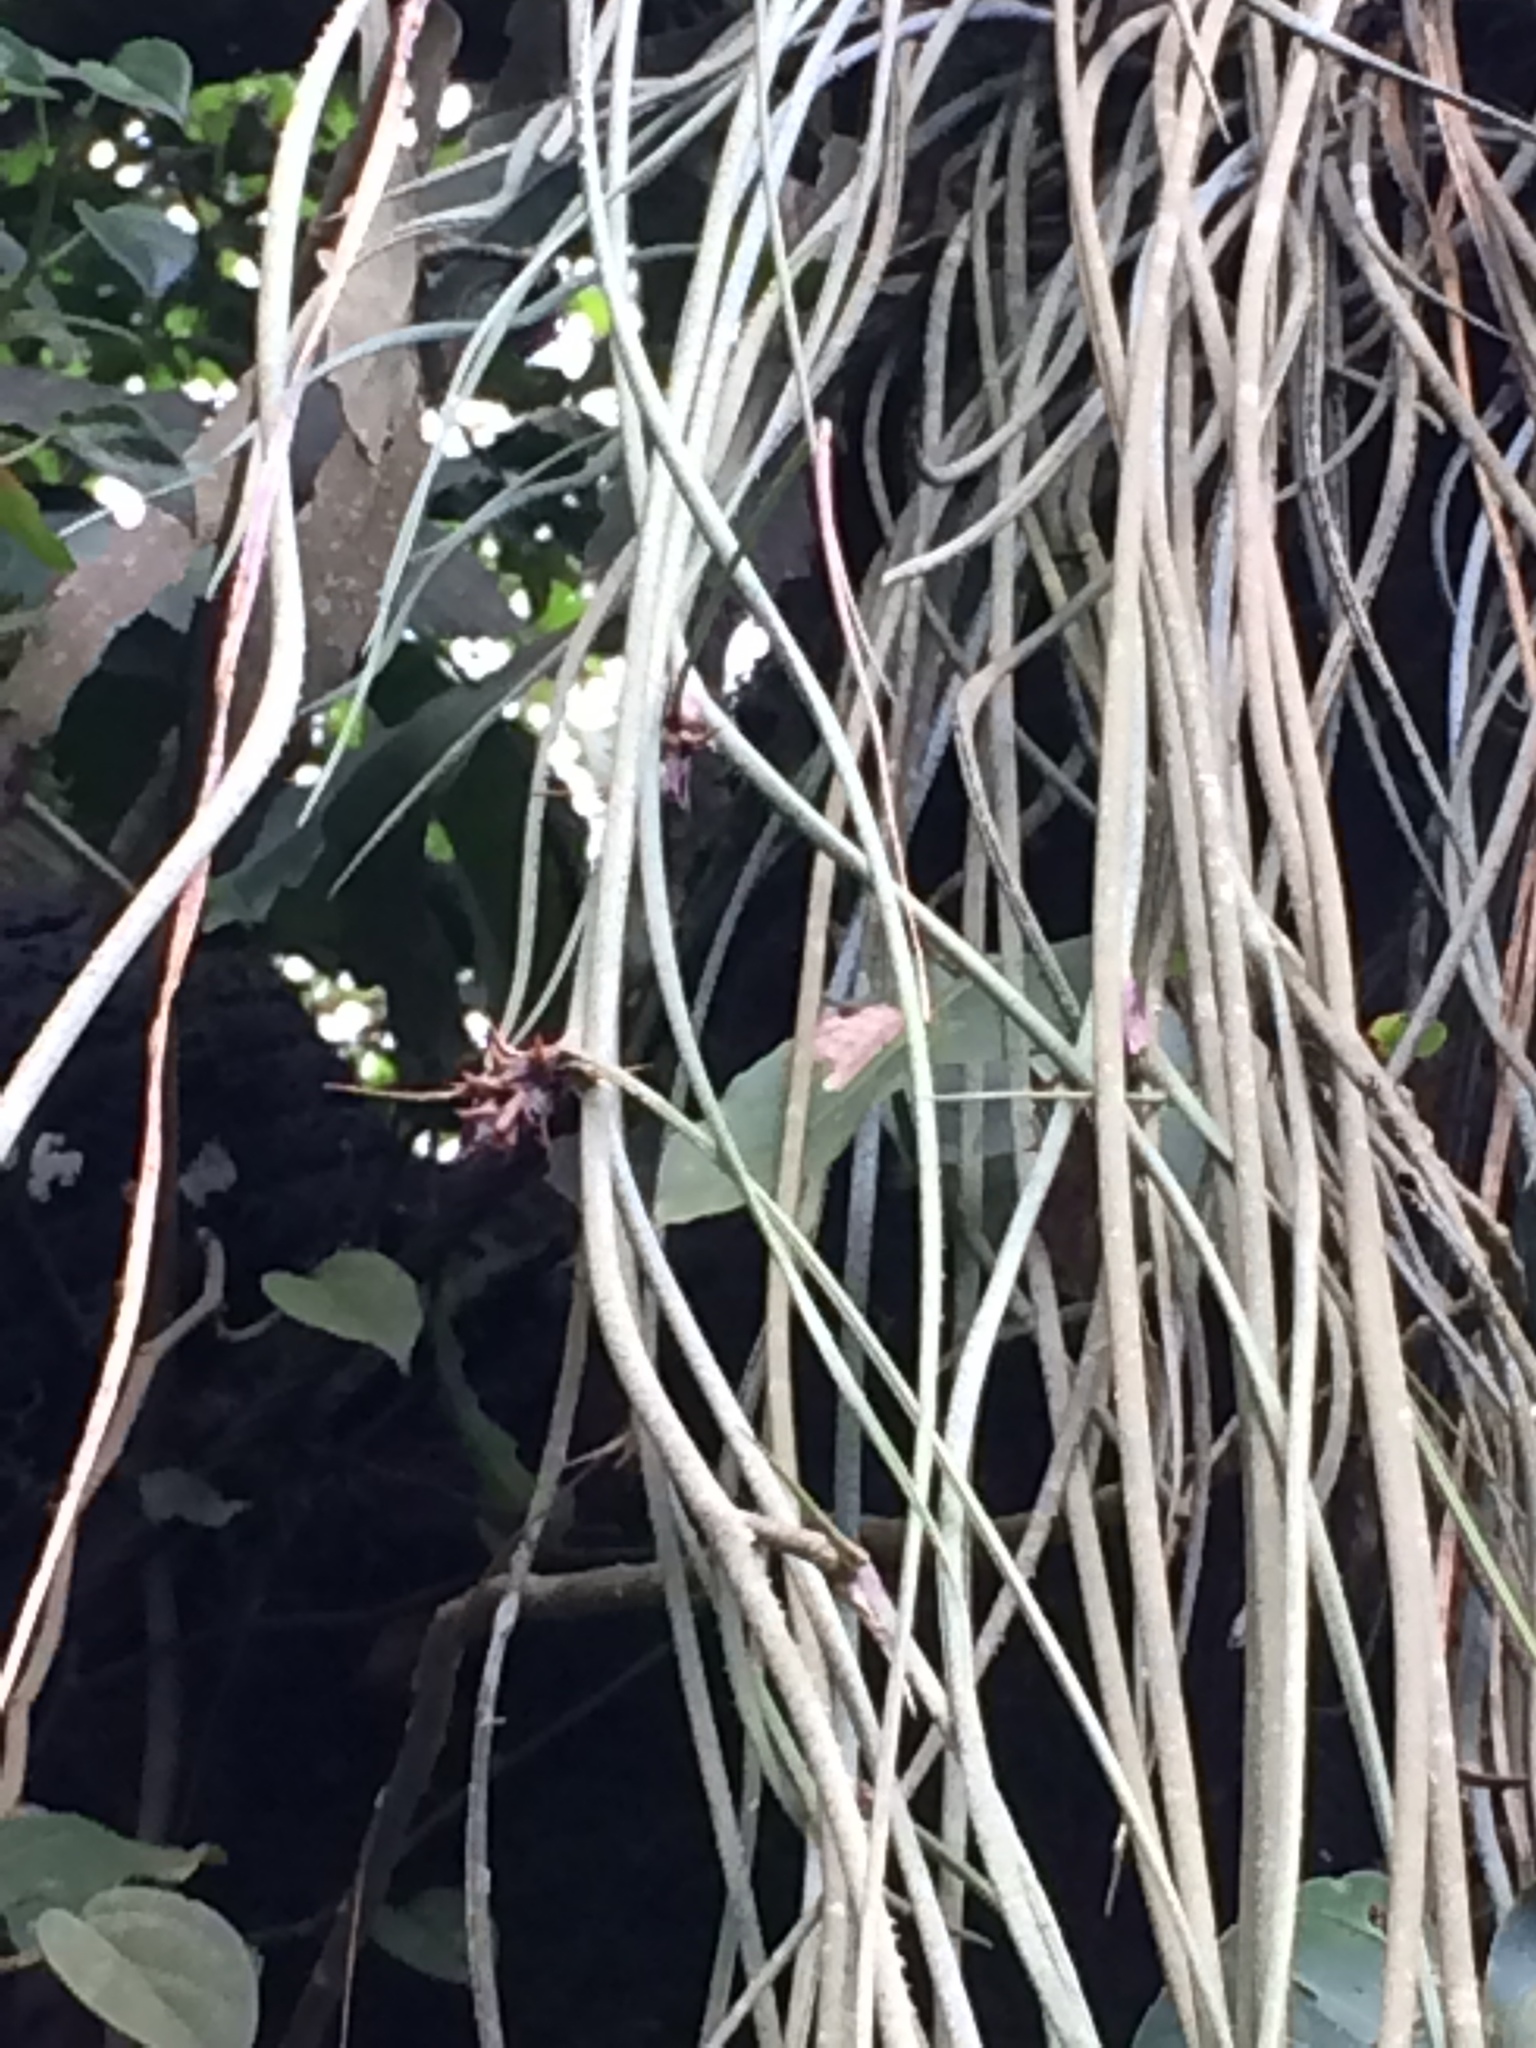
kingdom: Plantae
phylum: Tracheophyta
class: Liliopsida
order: Poales
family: Bromeliaceae
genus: Acanthostachys
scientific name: Acanthostachys strobilacea
